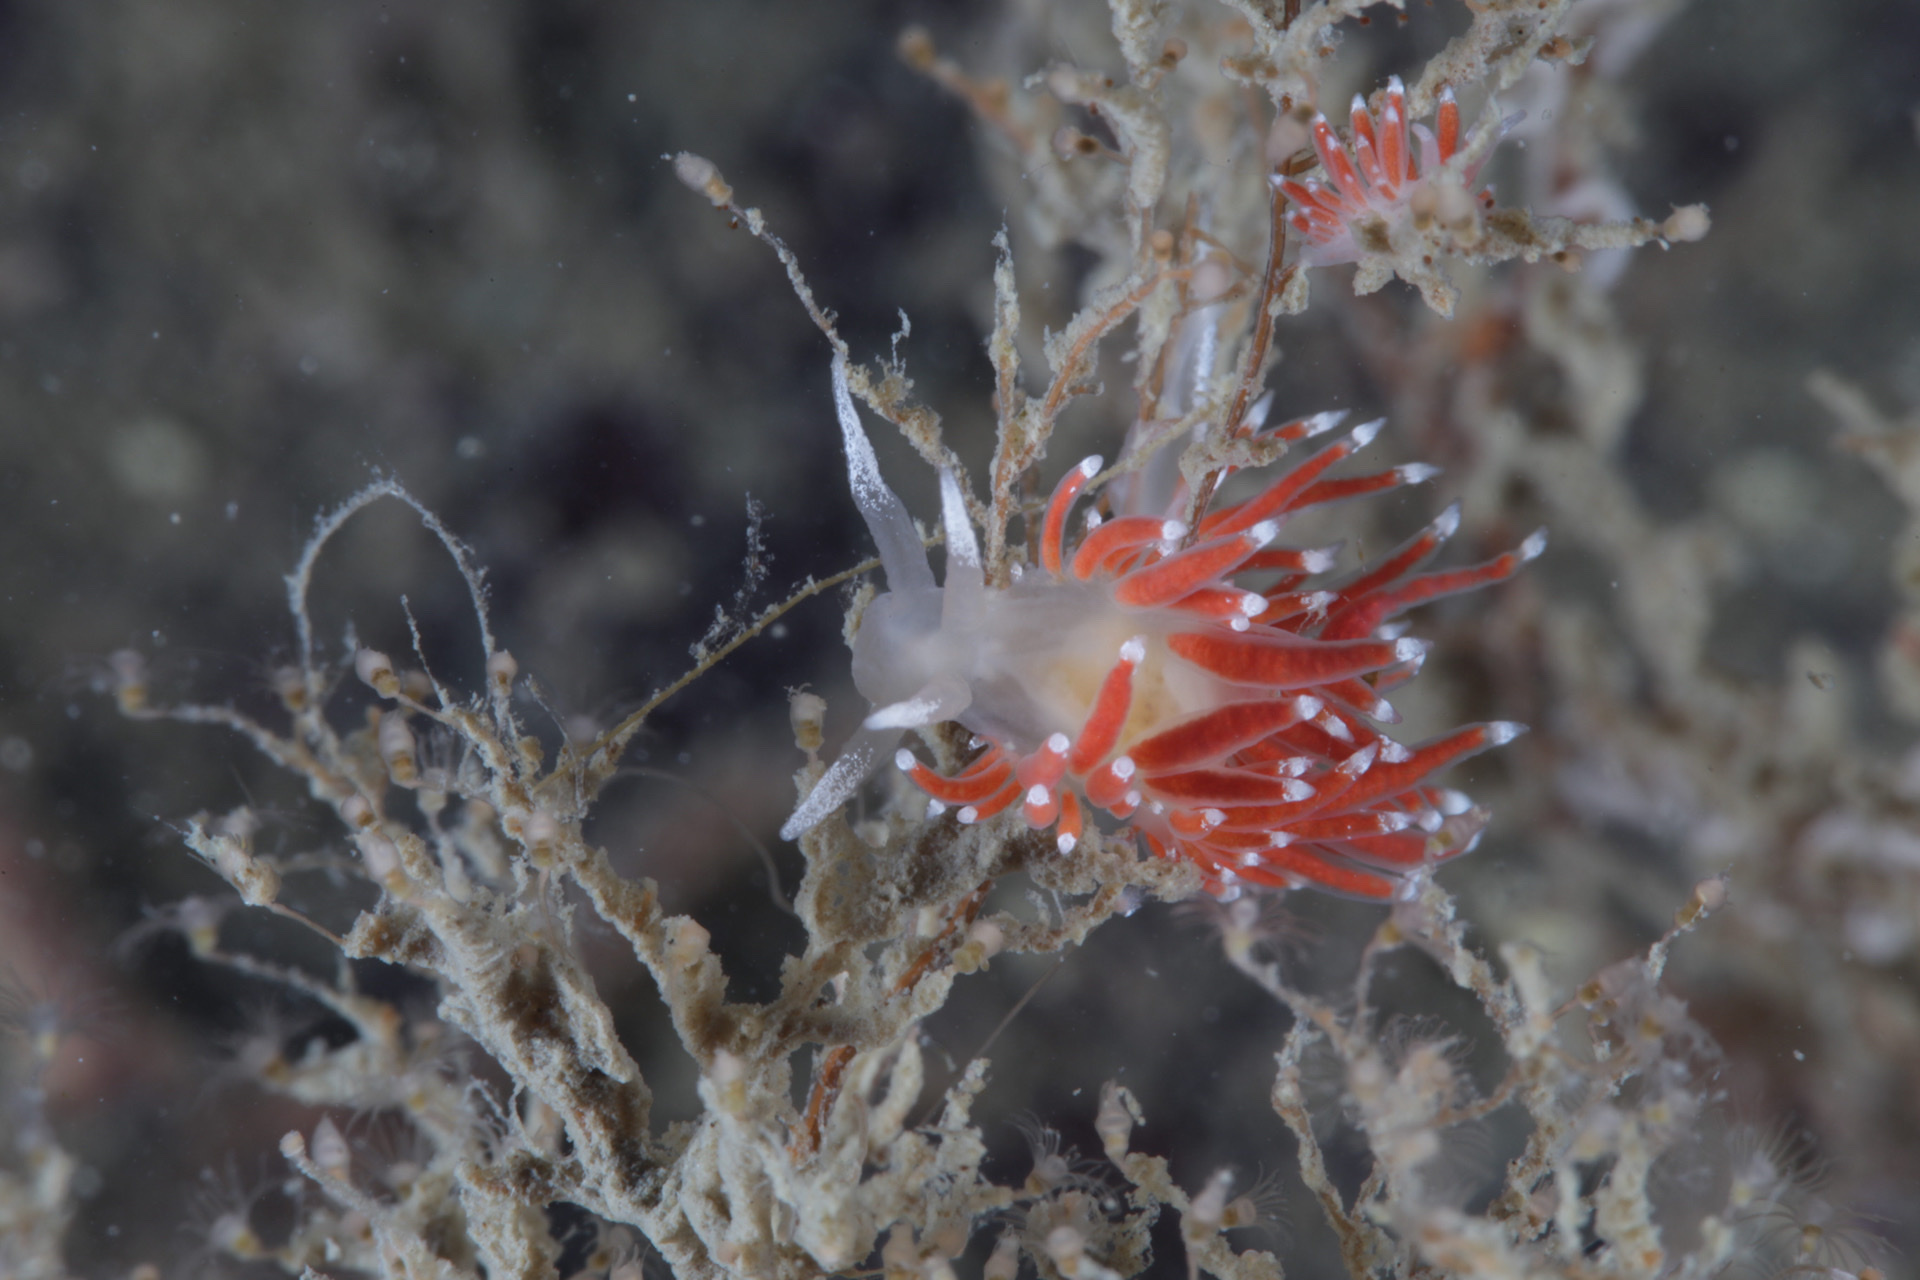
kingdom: Animalia
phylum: Mollusca
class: Gastropoda
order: Nudibranchia
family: Coryphellidae
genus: Coryphella
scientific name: Coryphella gracilis
